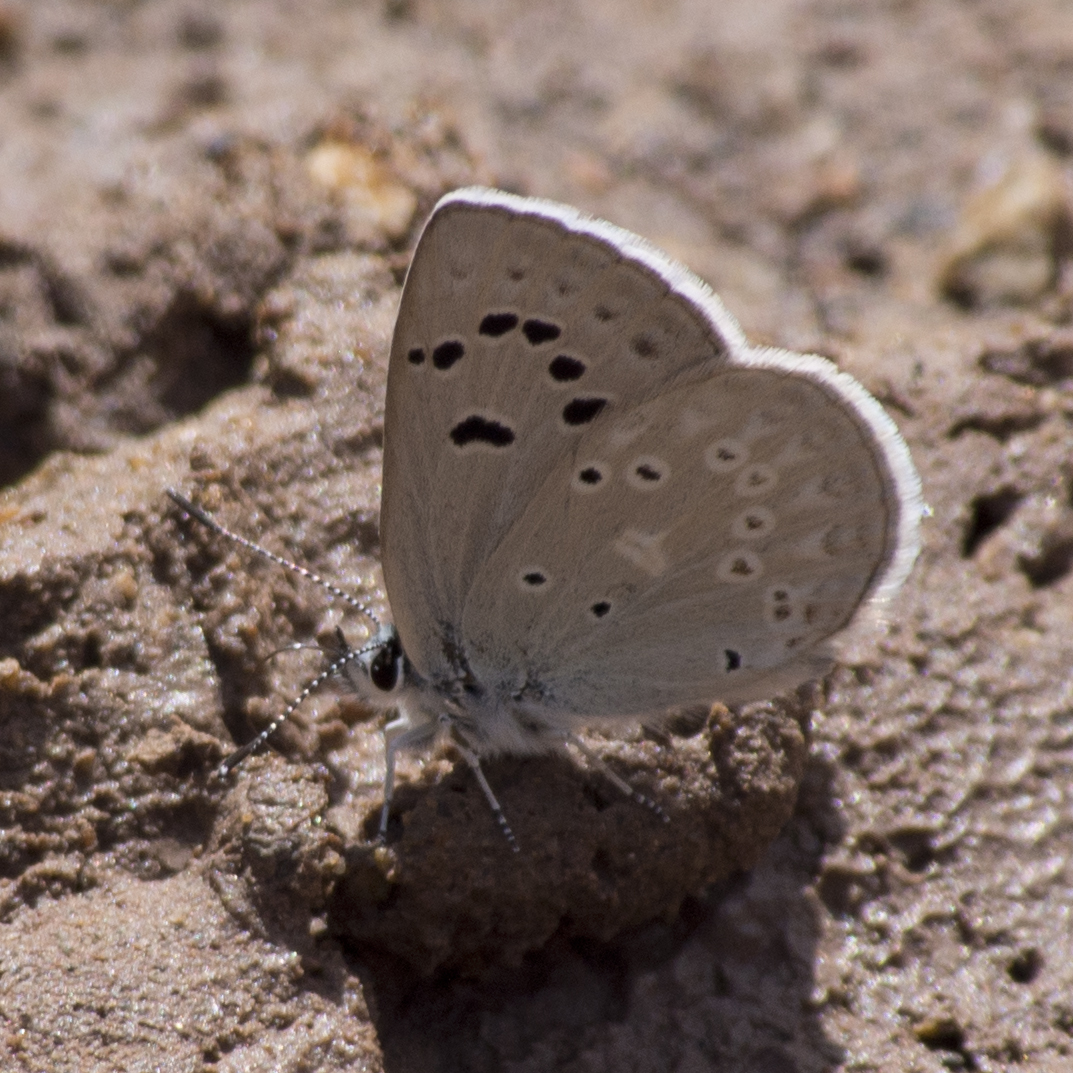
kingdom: Animalia
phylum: Arthropoda
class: Insecta
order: Lepidoptera
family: Lycaenidae
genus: Icaricia
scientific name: Icaricia icarioides
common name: Boisduval's blue
